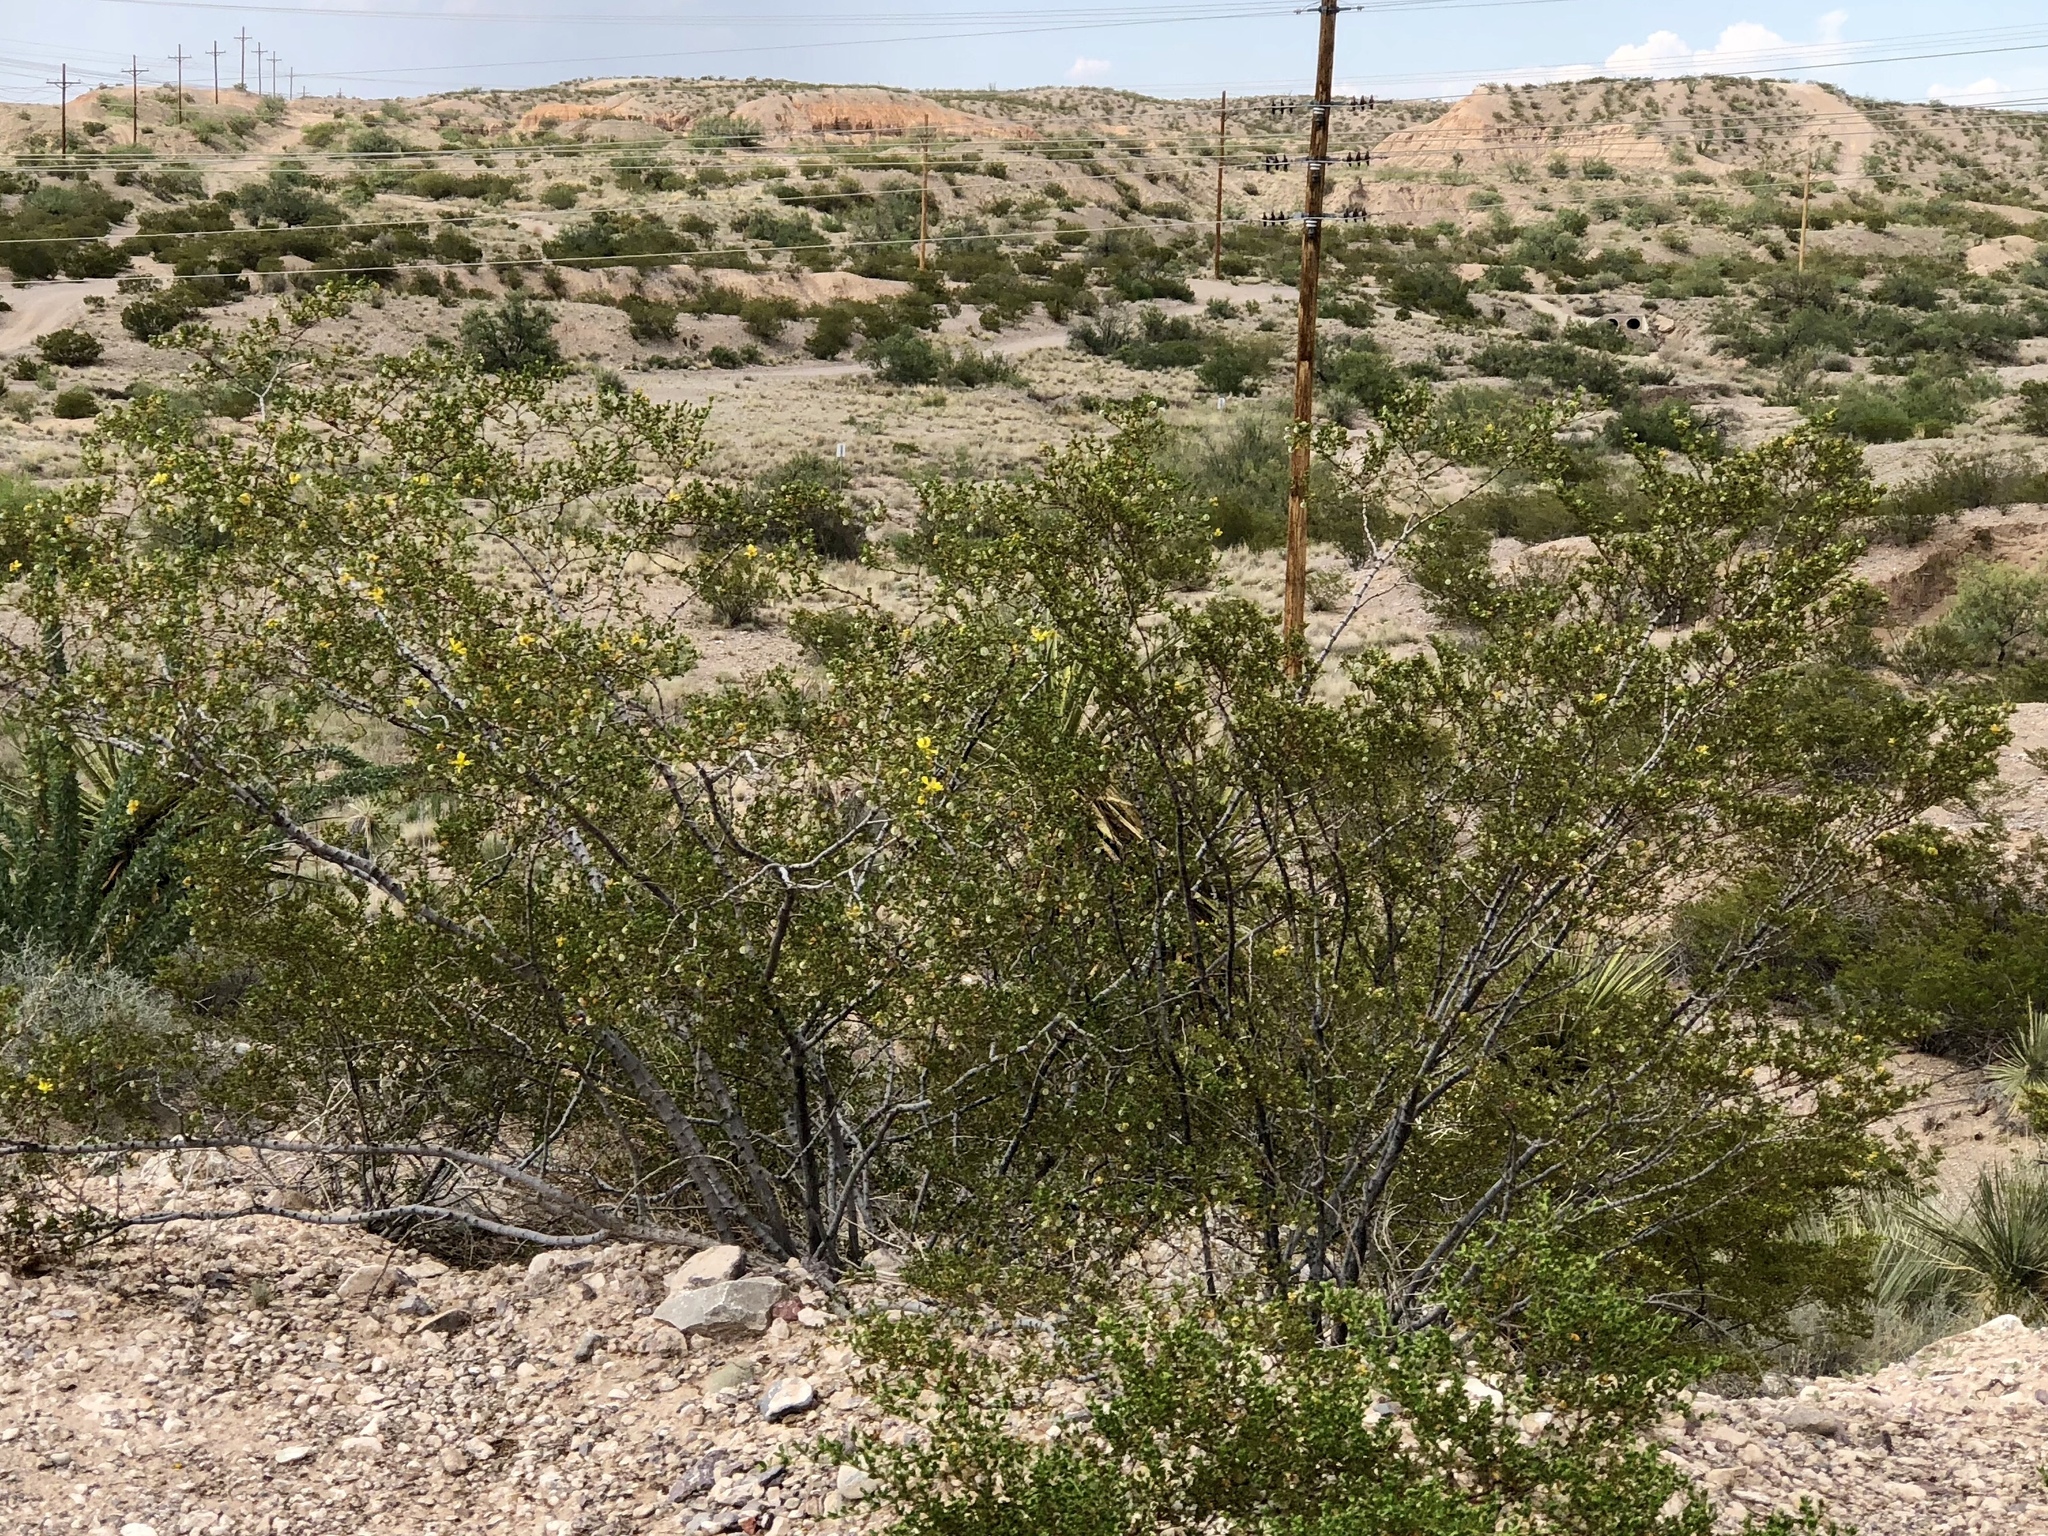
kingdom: Plantae
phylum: Tracheophyta
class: Magnoliopsida
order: Zygophyllales
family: Zygophyllaceae
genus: Larrea
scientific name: Larrea tridentata
